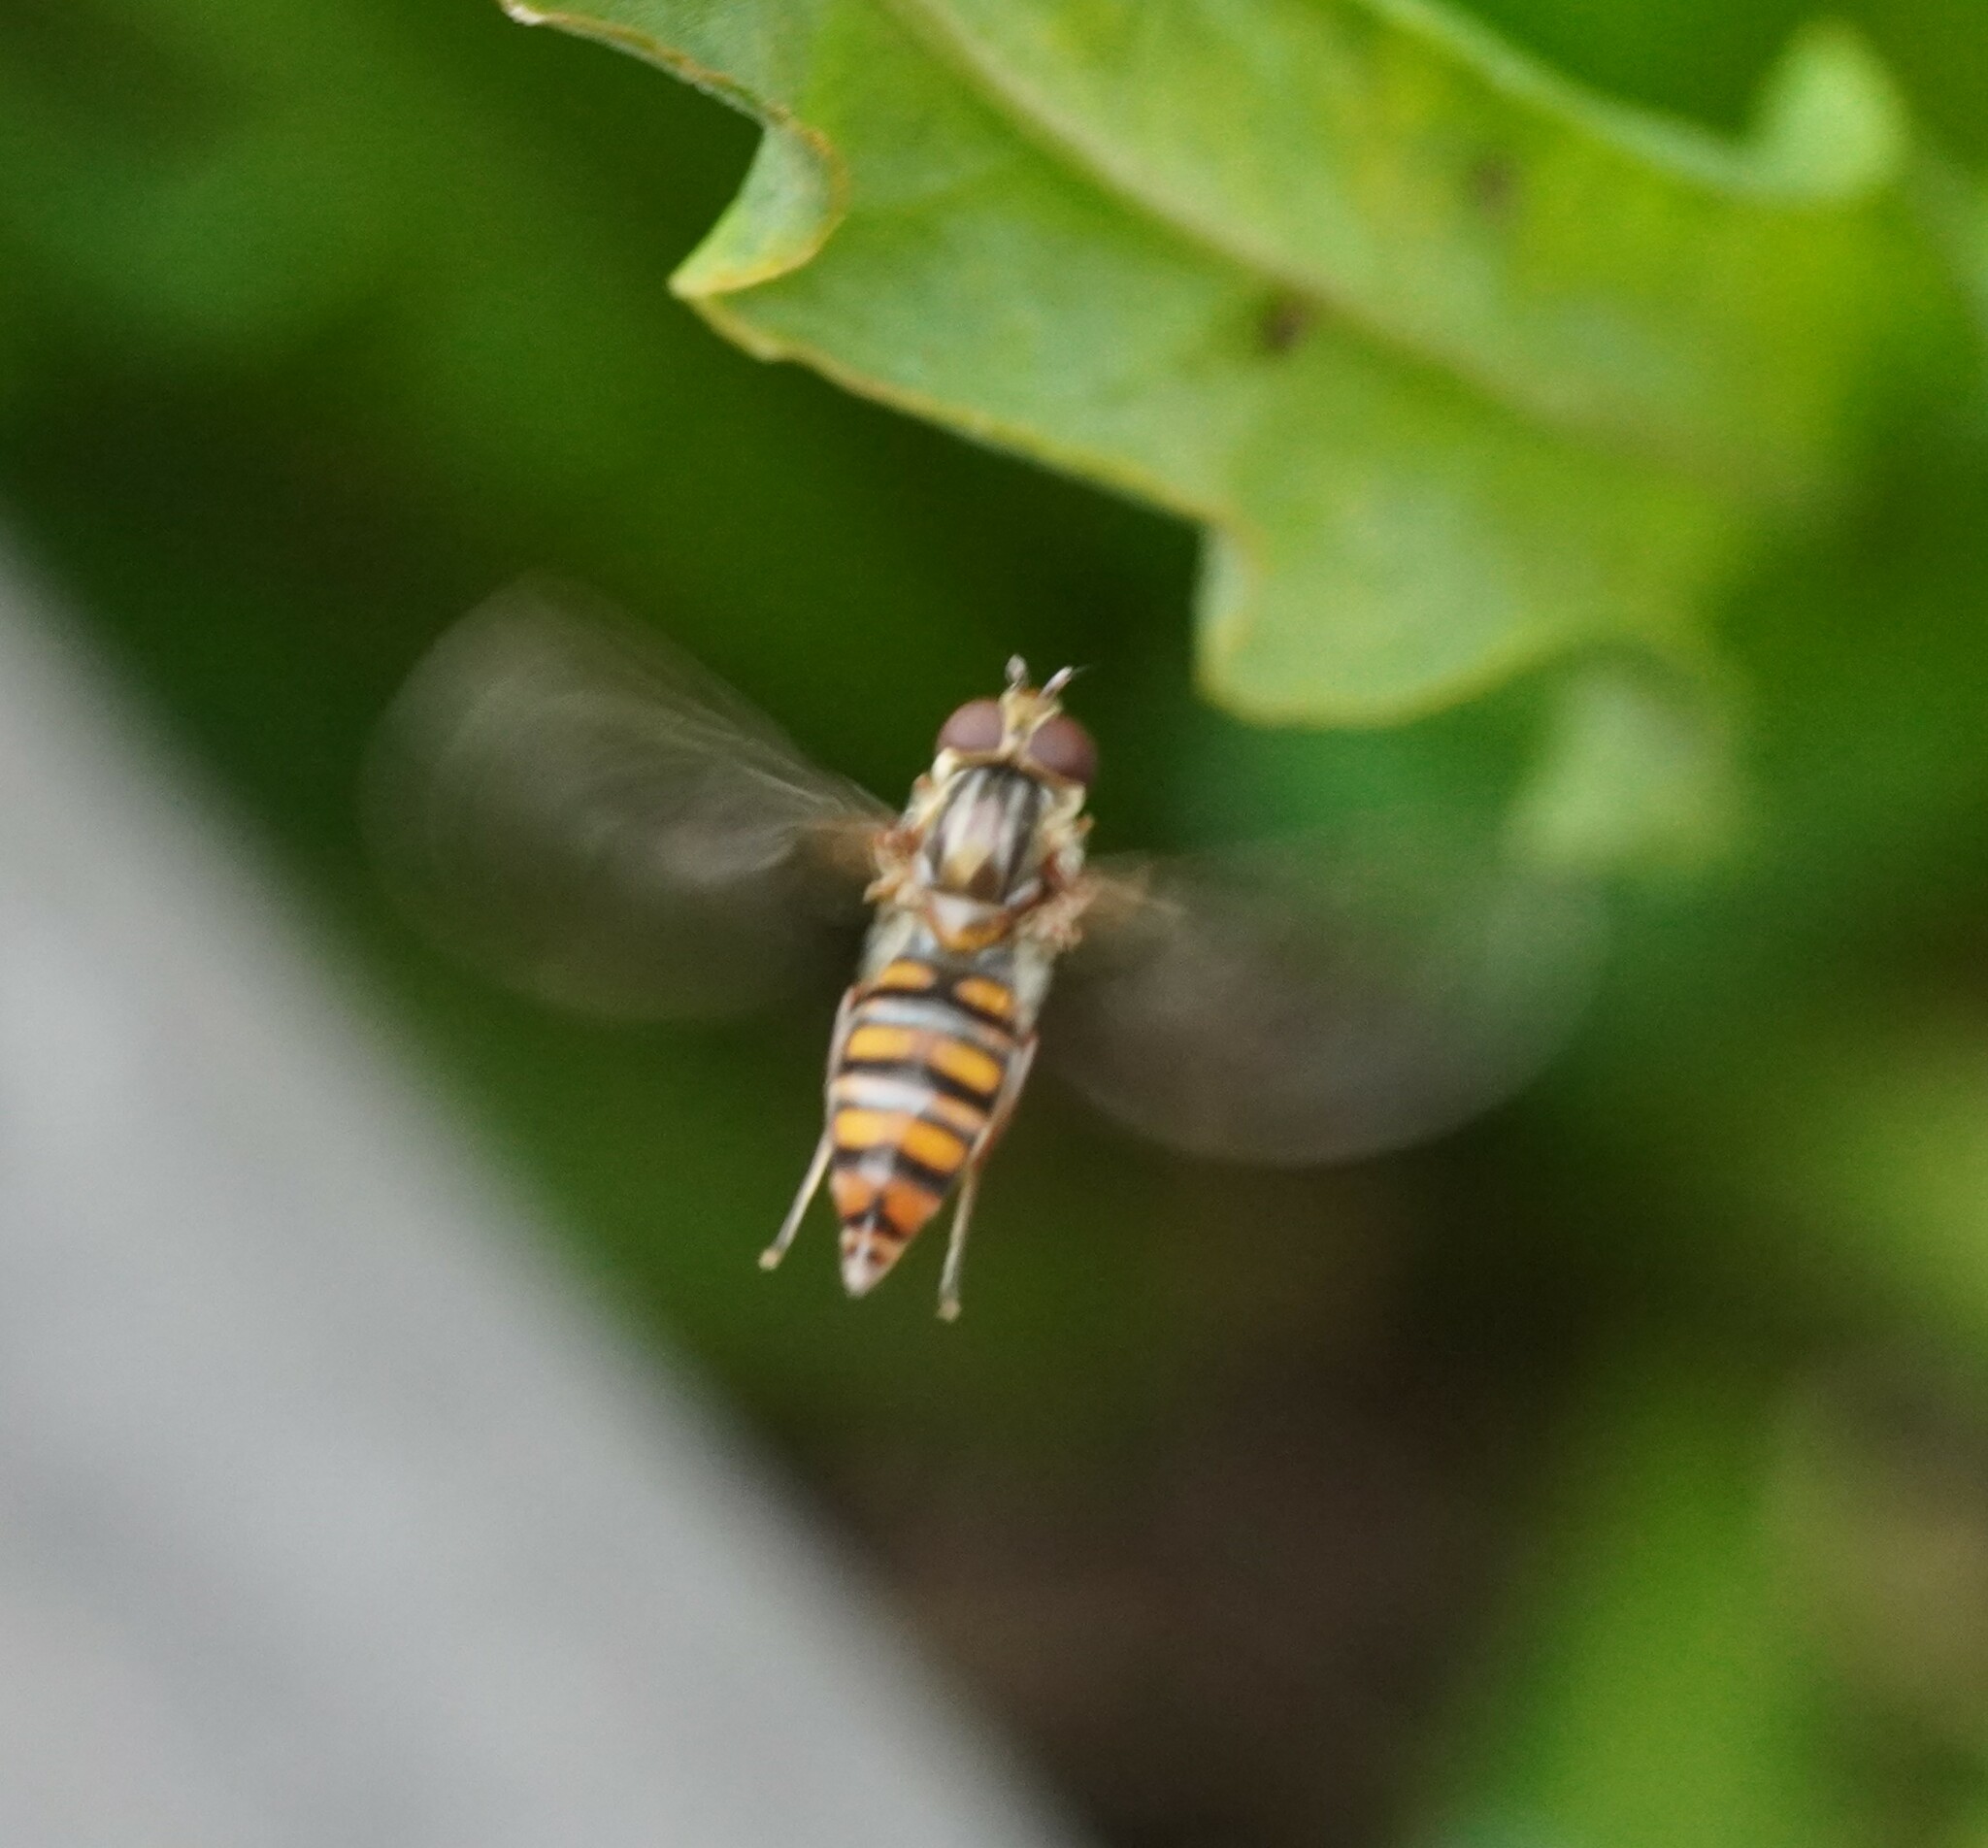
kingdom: Animalia
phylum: Arthropoda
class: Insecta
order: Diptera
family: Syrphidae
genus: Episyrphus
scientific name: Episyrphus balteatus
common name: Marmalade hoverfly
